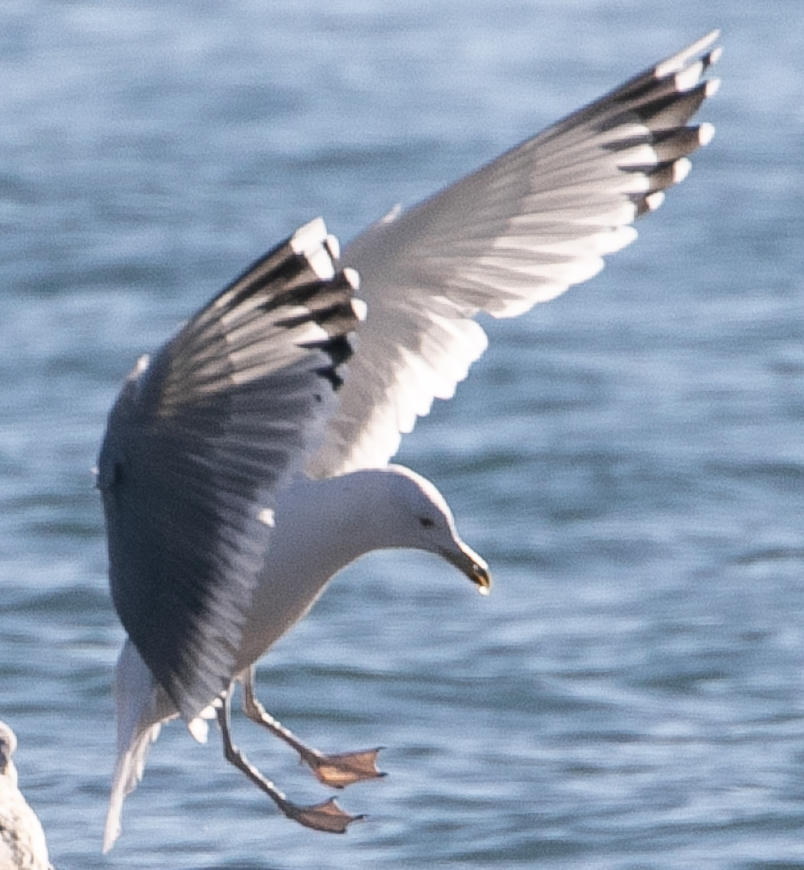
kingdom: Animalia
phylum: Chordata
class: Aves
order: Charadriiformes
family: Laridae
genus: Larus
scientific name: Larus cachinnans
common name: Caspian gull
